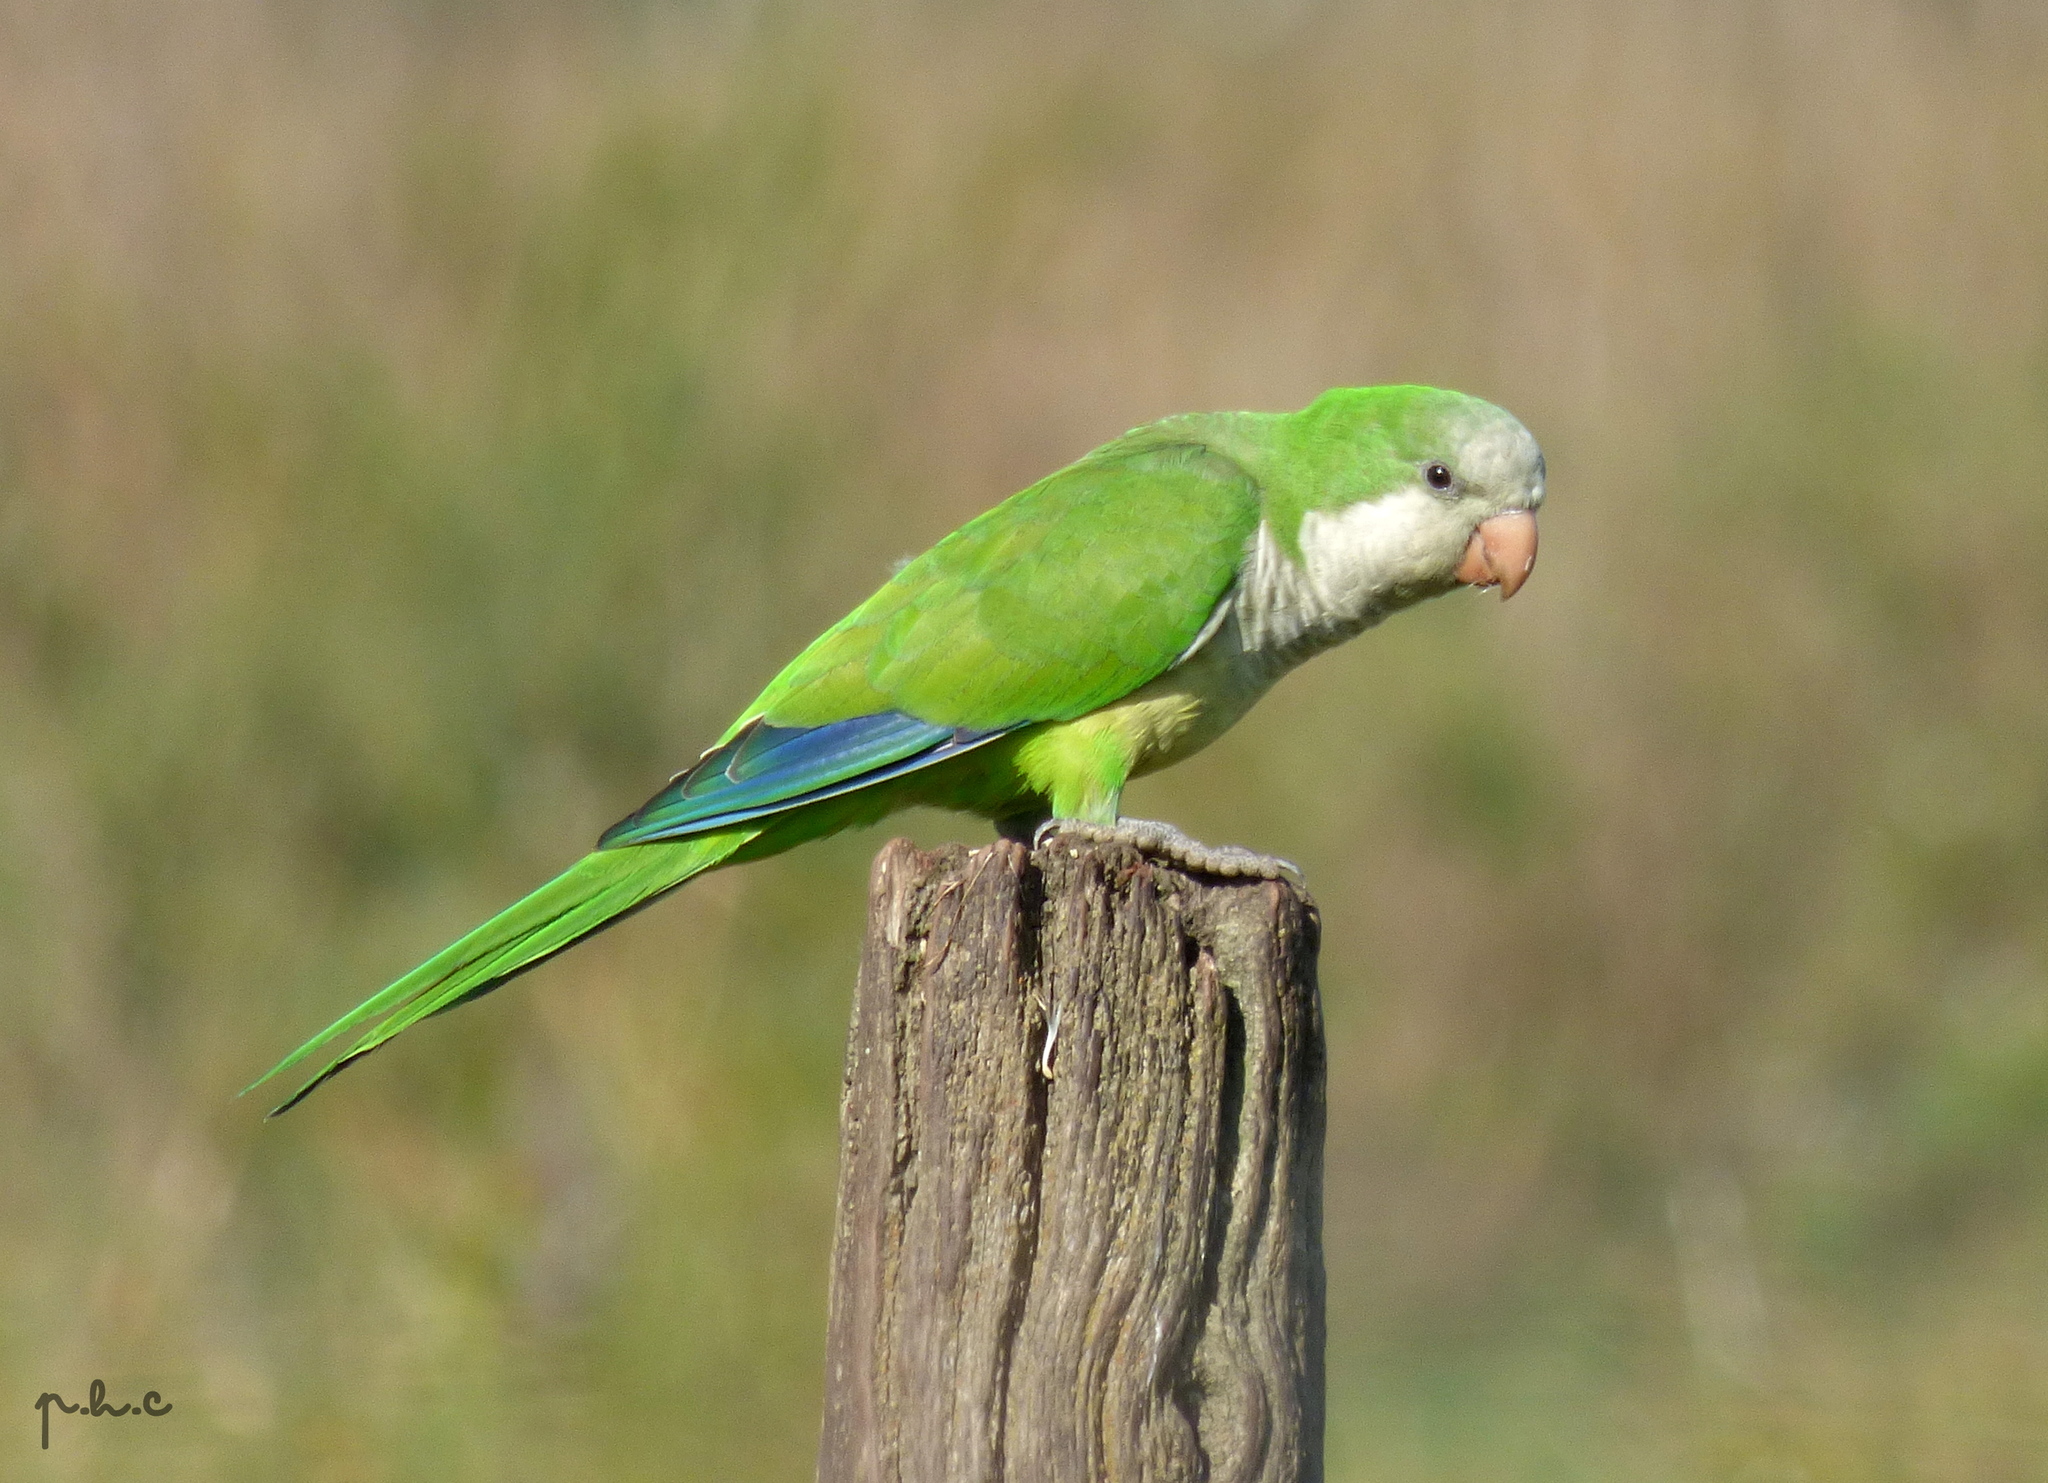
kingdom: Animalia
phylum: Chordata
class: Aves
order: Psittaciformes
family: Psittacidae
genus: Myiopsitta
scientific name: Myiopsitta monachus
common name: Monk parakeet
